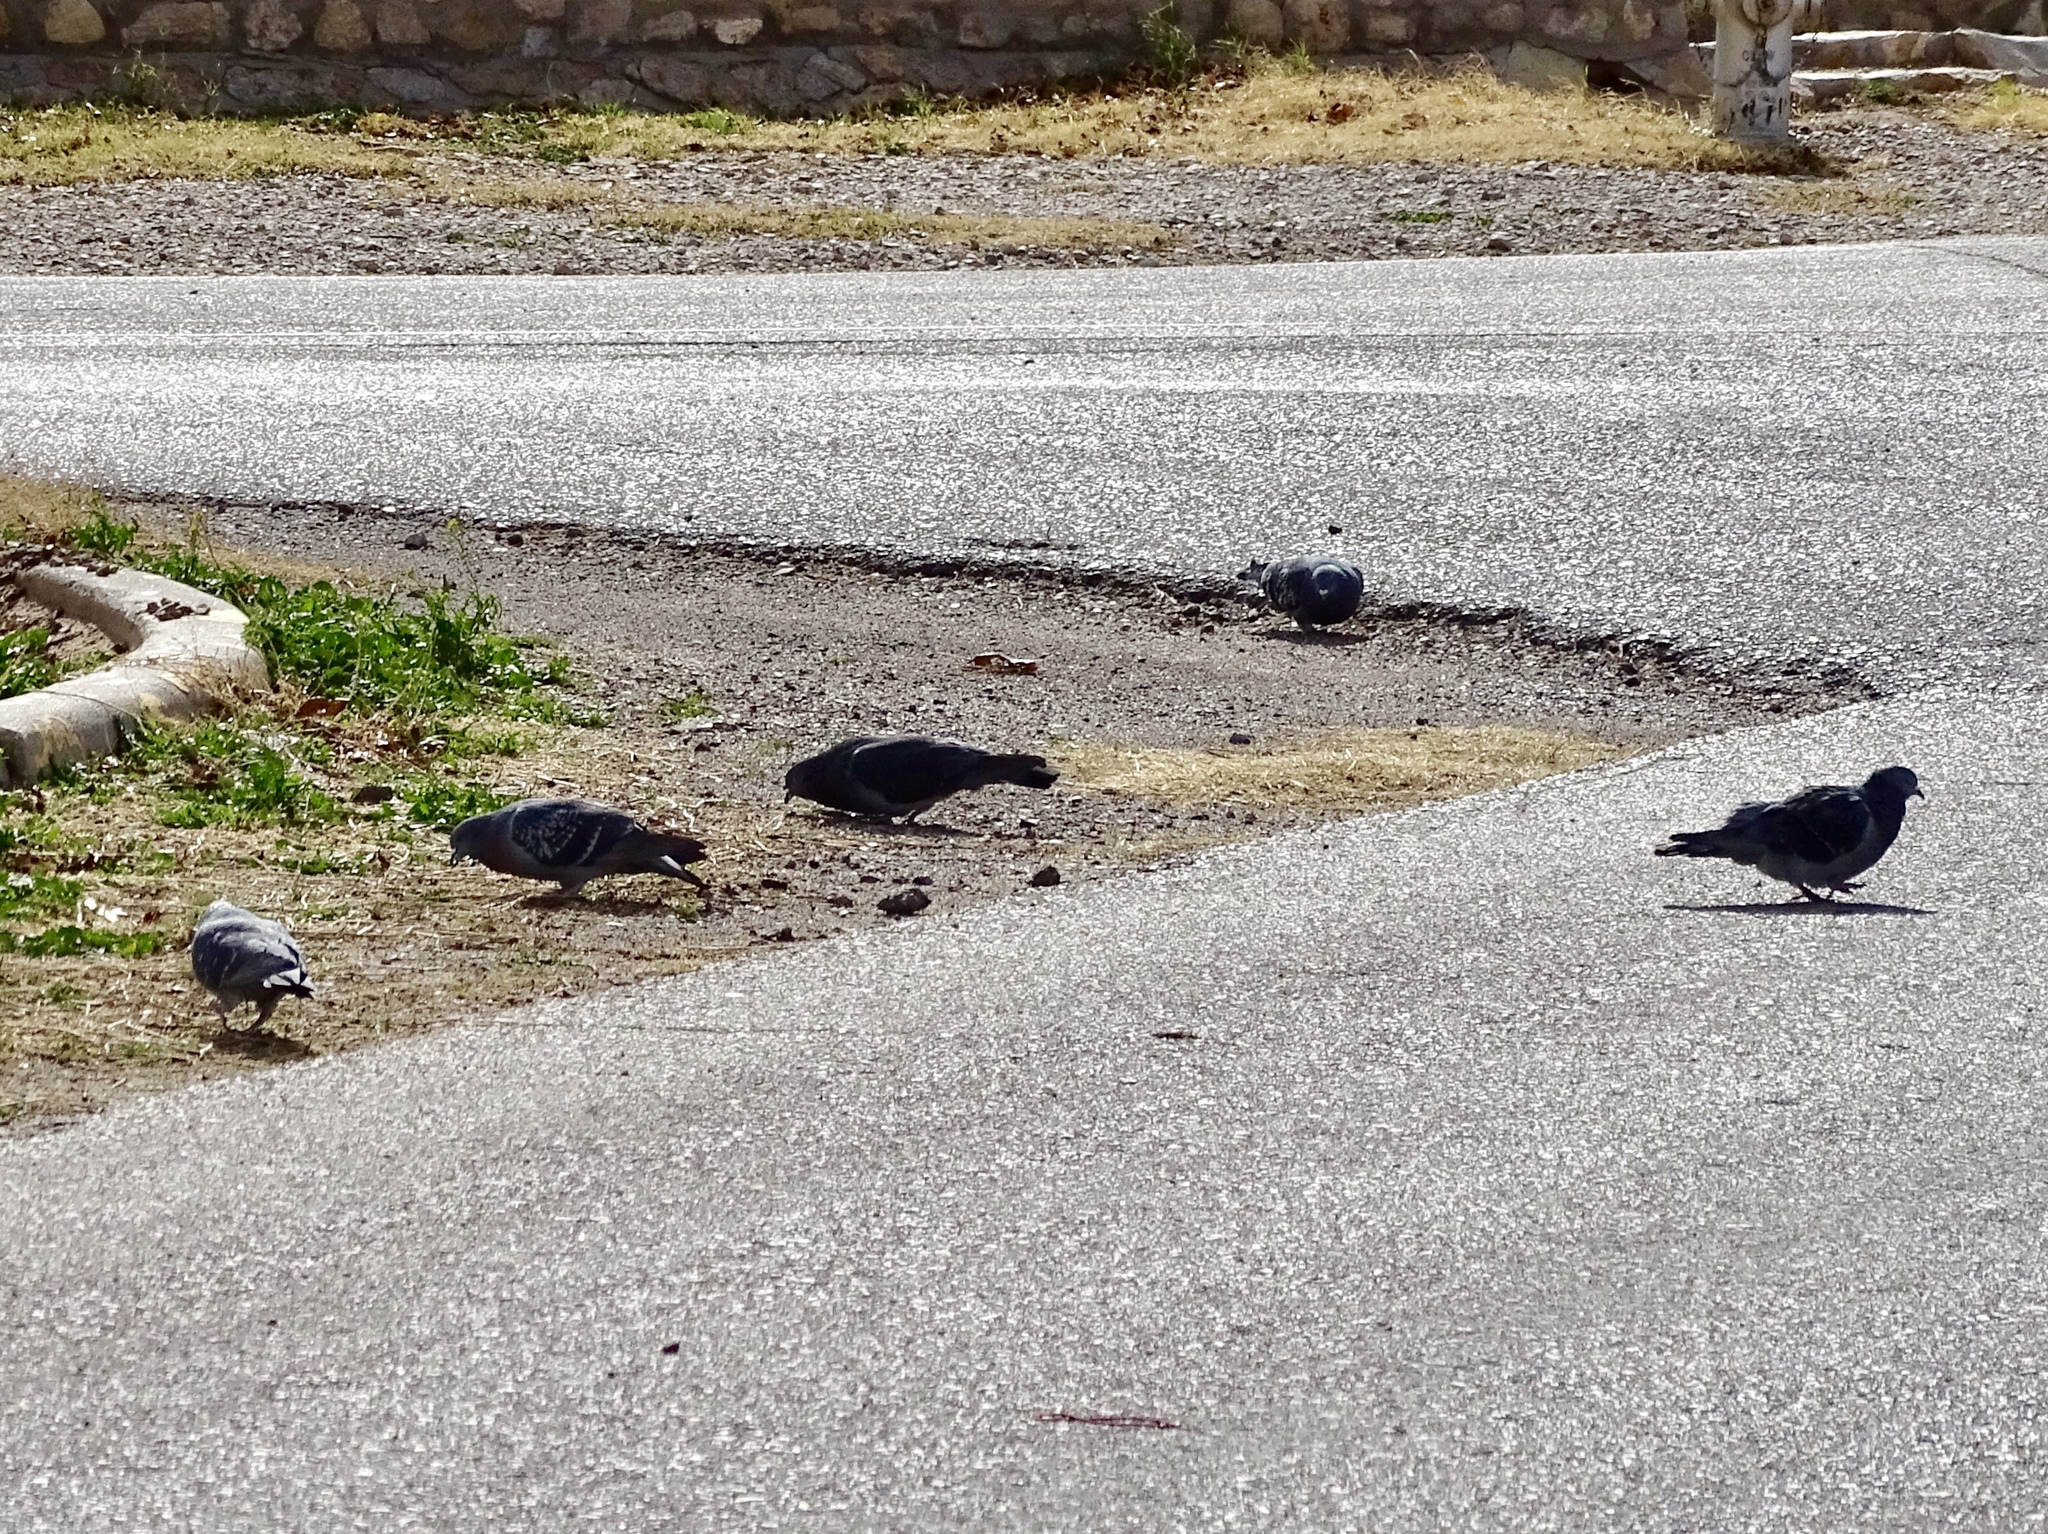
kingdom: Animalia
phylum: Chordata
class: Aves
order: Columbiformes
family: Columbidae
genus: Columba
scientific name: Columba livia
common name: Rock pigeon
